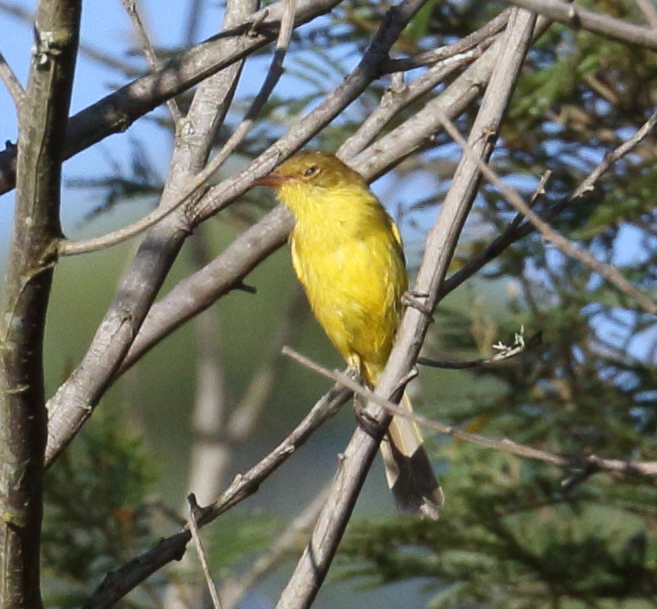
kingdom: Animalia
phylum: Chordata
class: Aves
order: Passeriformes
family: Acrocephalidae
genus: Iduna
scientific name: Iduna natalensis
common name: African yellow warbler
